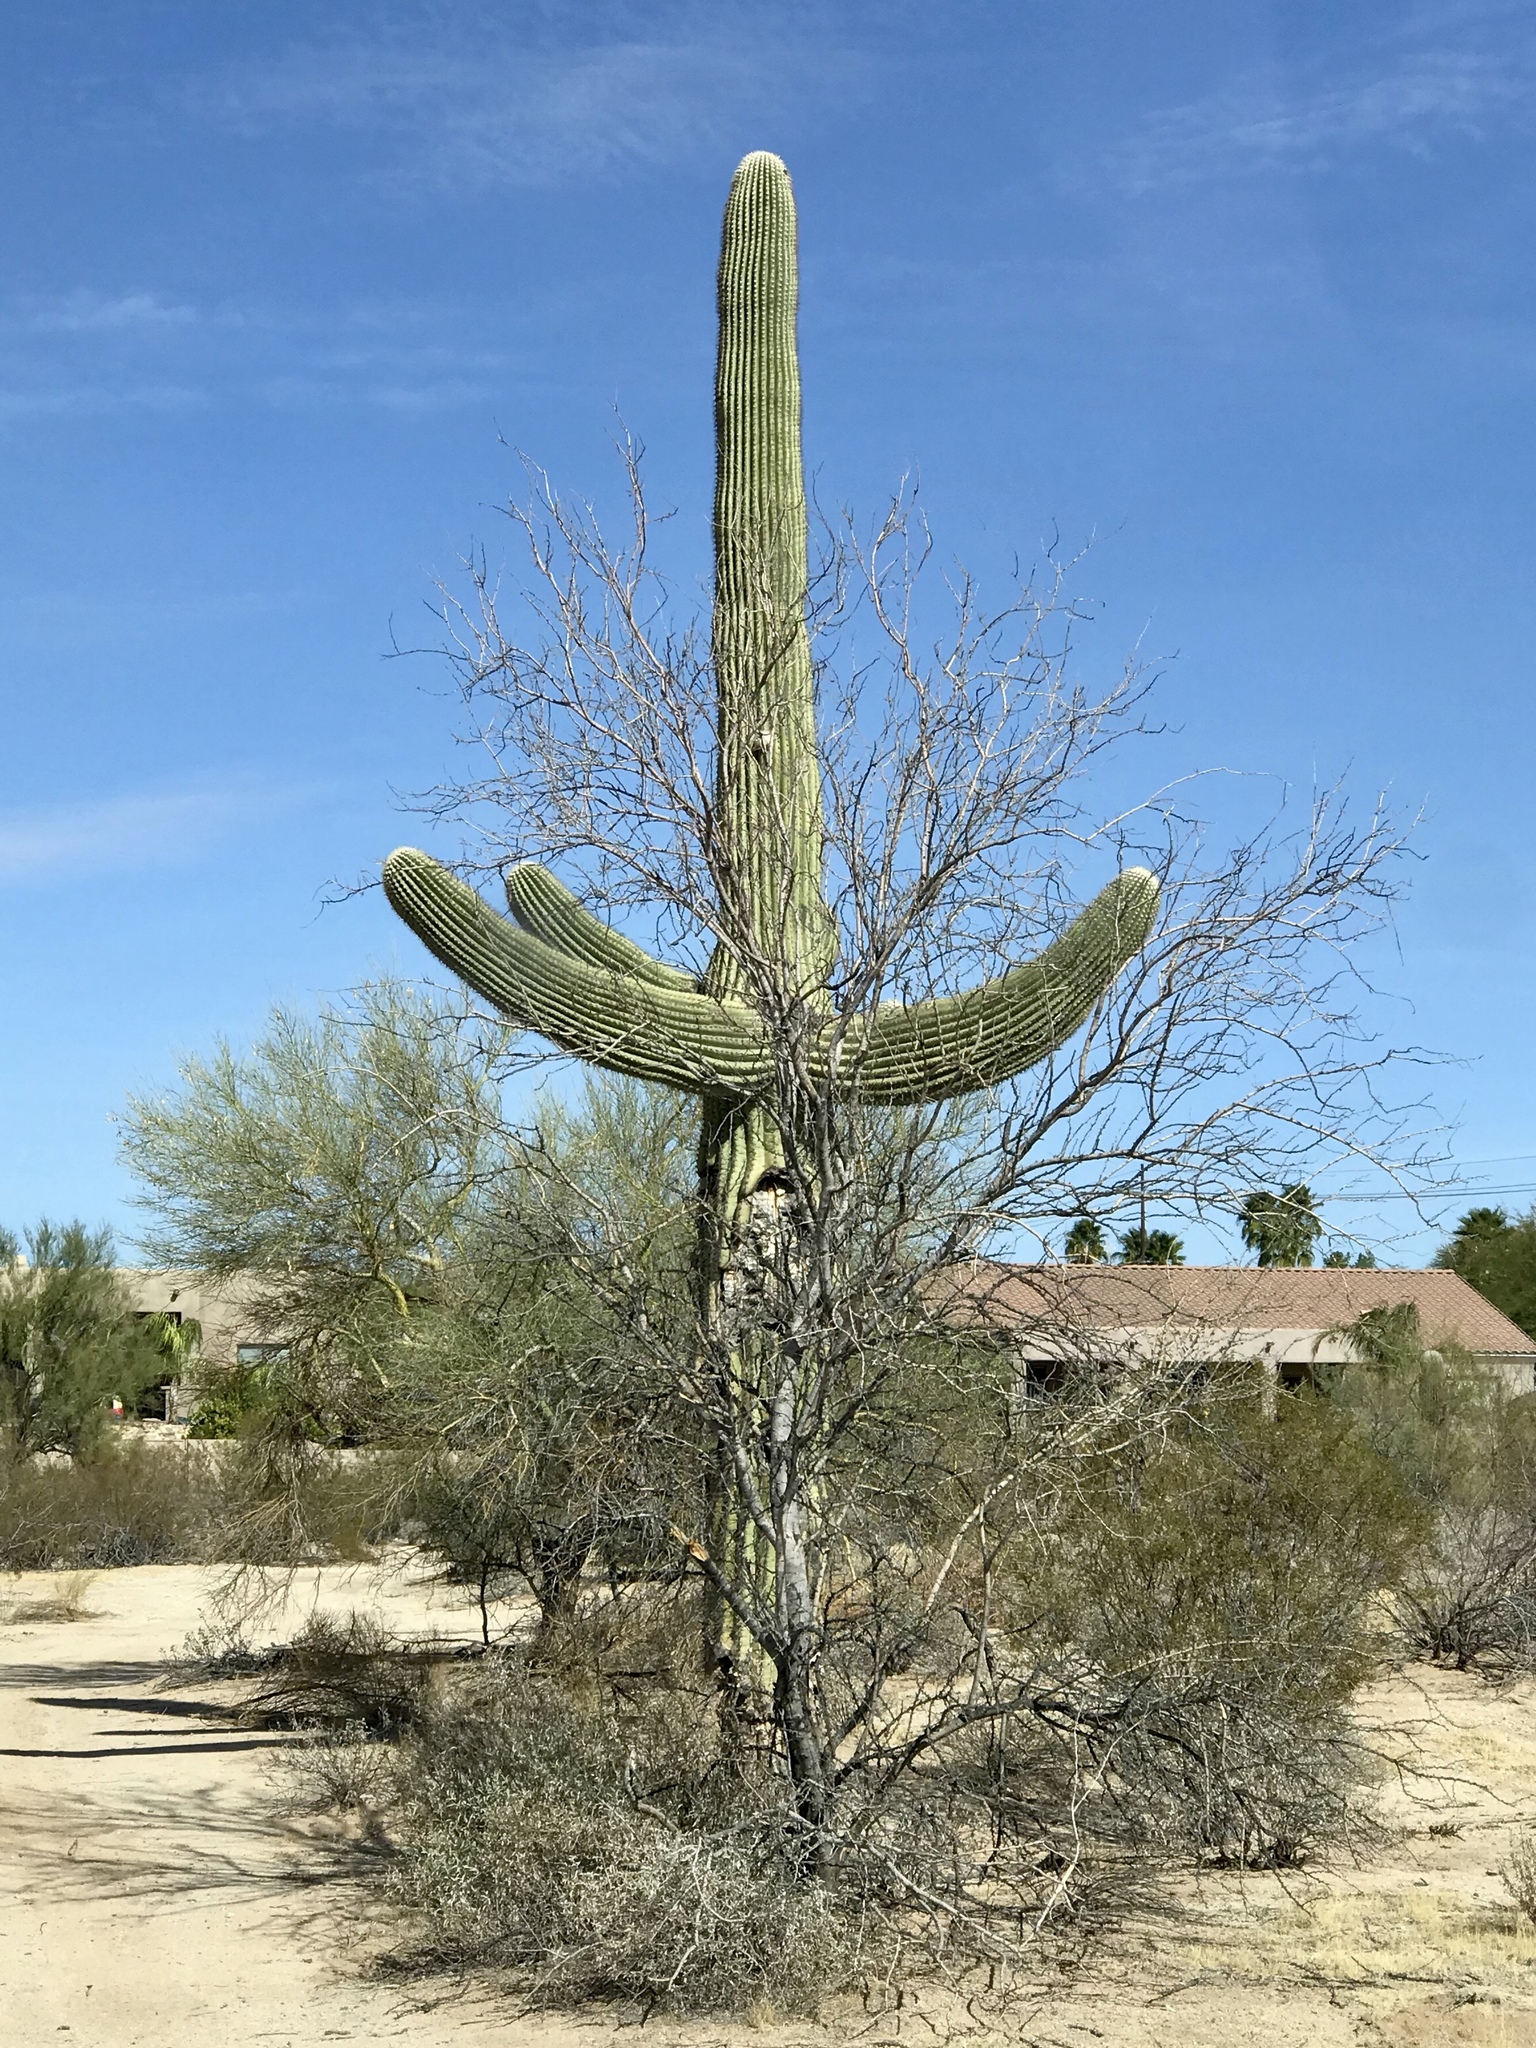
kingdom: Plantae
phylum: Tracheophyta
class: Magnoliopsida
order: Caryophyllales
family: Cactaceae
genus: Carnegiea
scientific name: Carnegiea gigantea
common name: Saguaro
